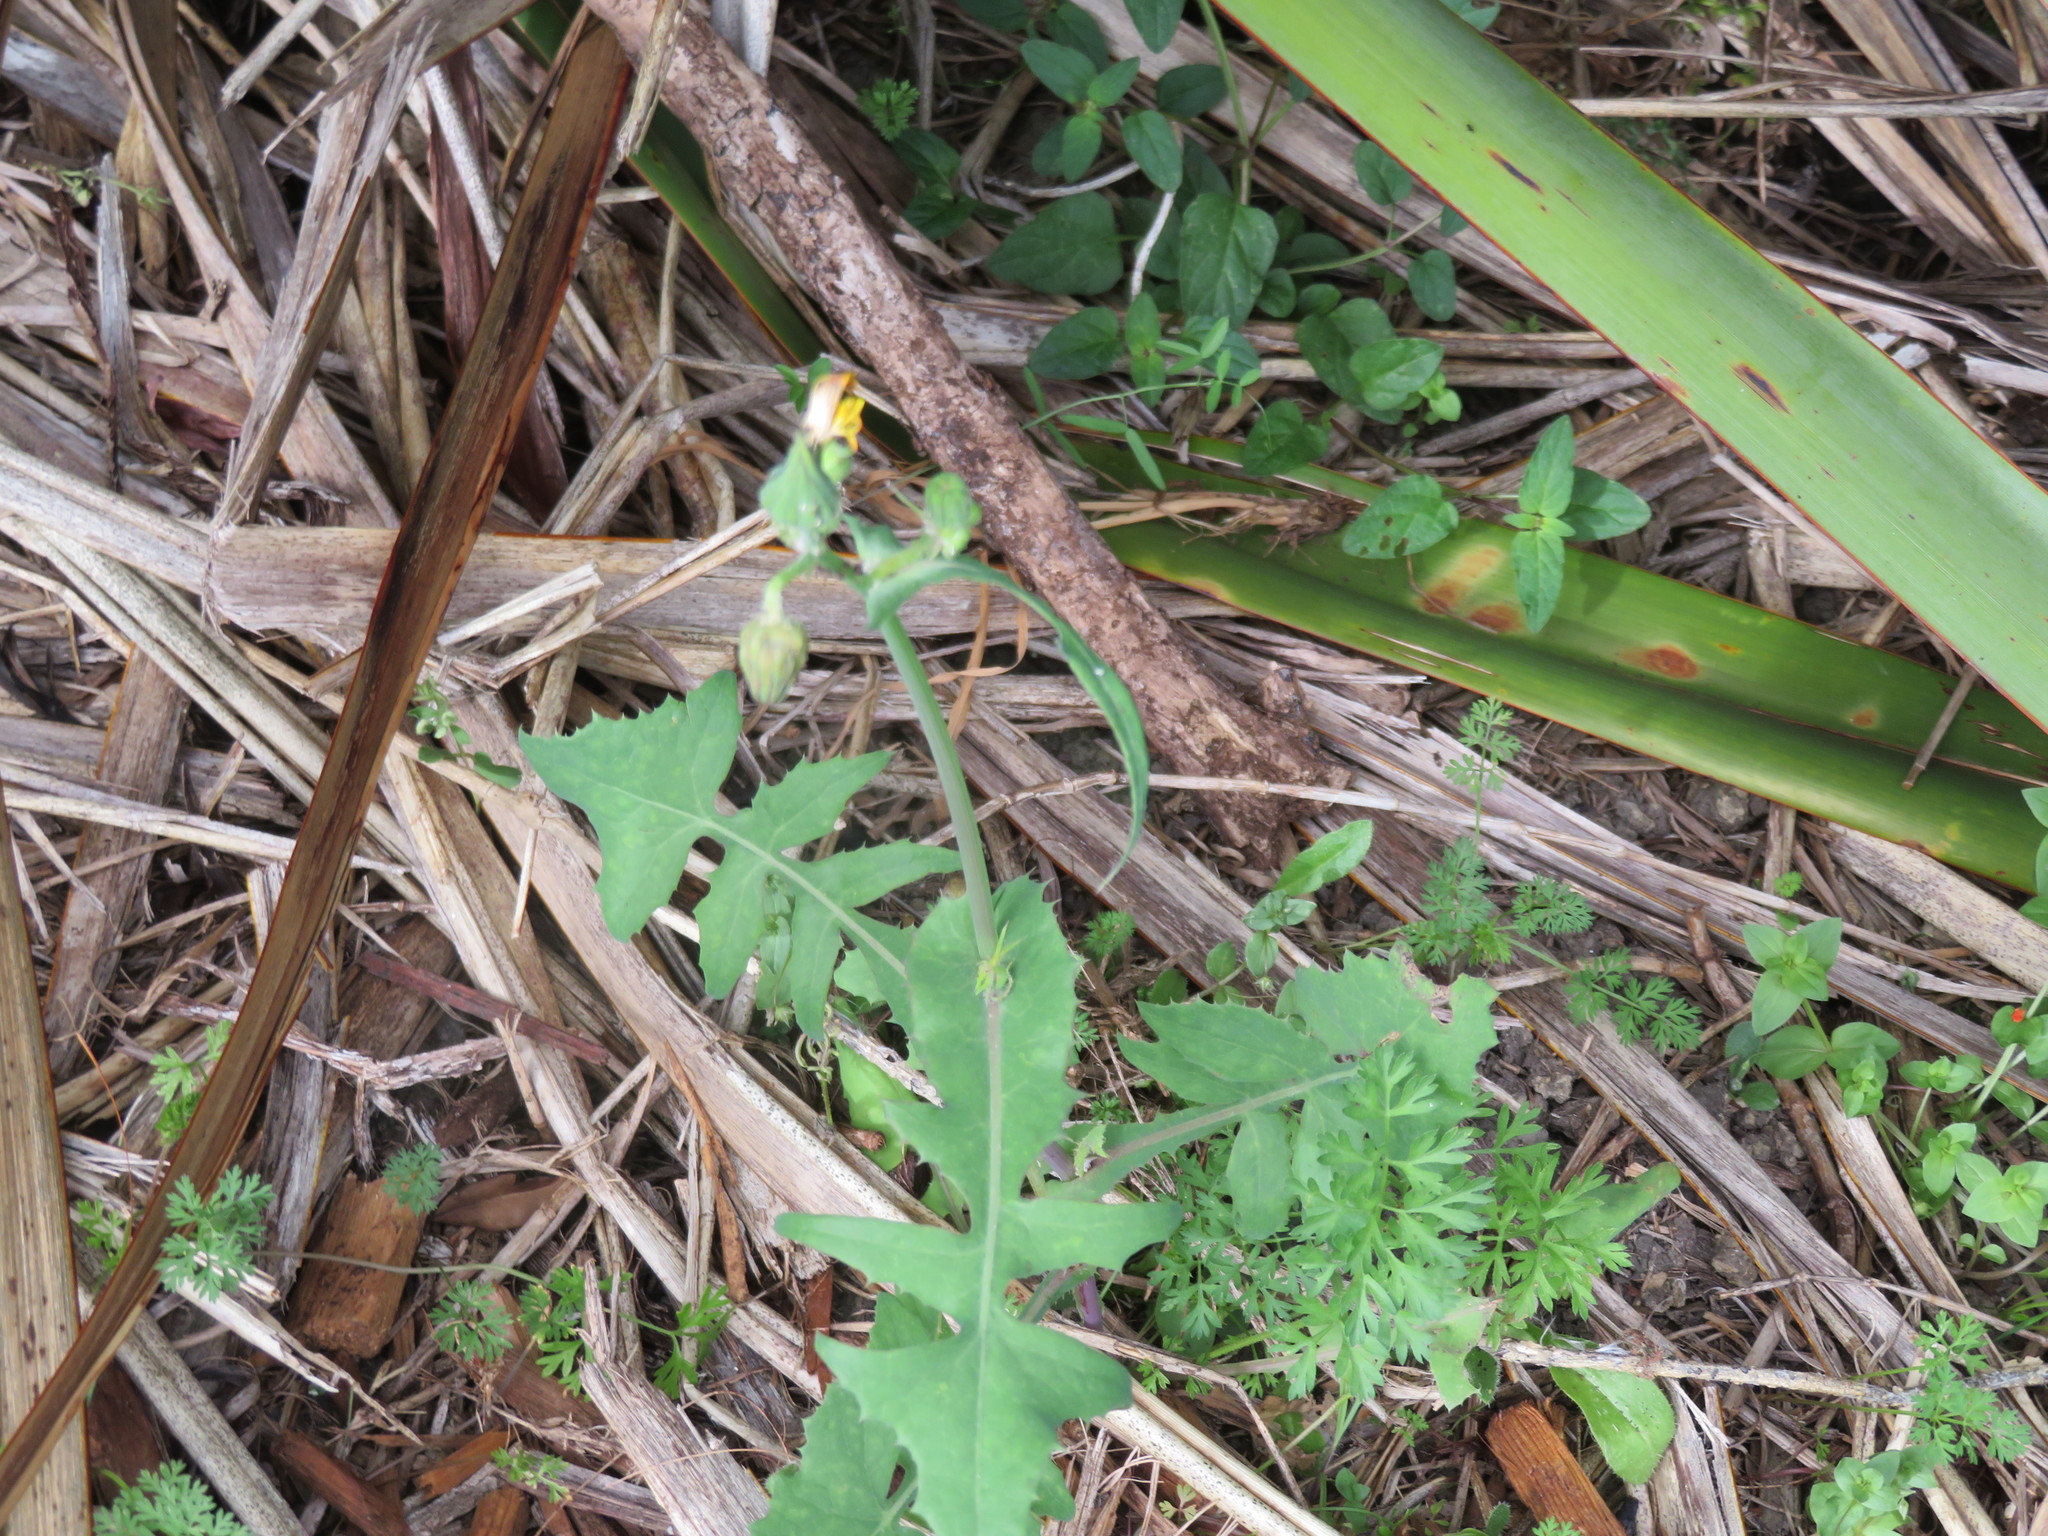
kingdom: Plantae
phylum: Tracheophyta
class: Magnoliopsida
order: Asterales
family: Asteraceae
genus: Sonchus
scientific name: Sonchus oleraceus
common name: Common sowthistle
